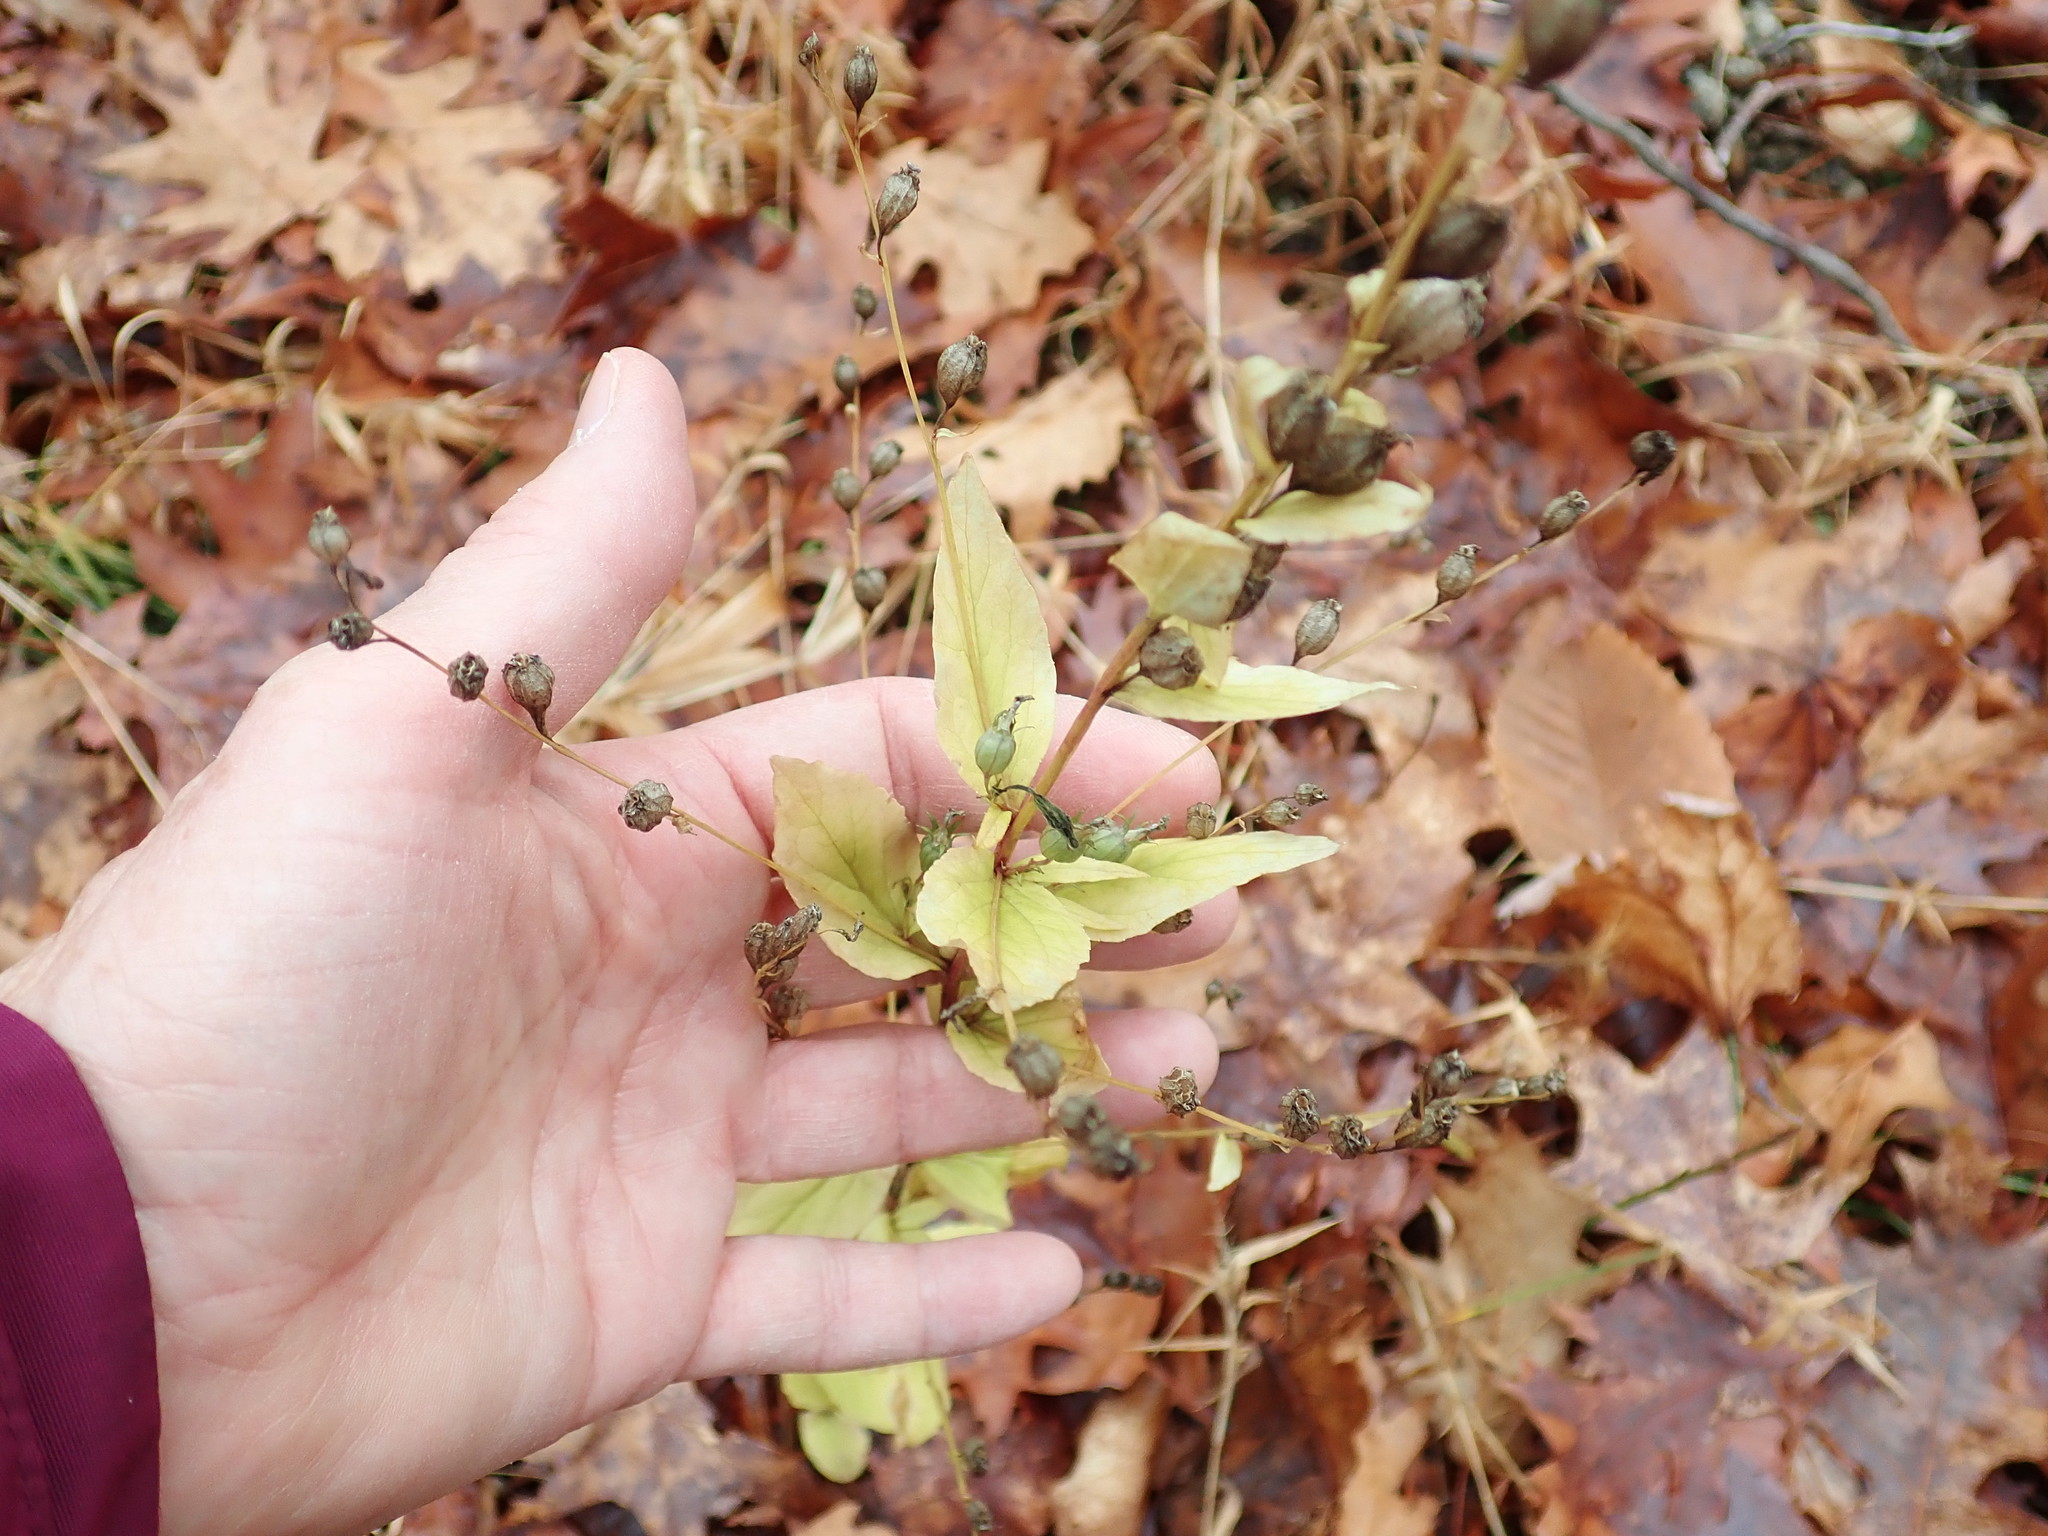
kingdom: Plantae
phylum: Tracheophyta
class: Magnoliopsida
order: Asterales
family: Campanulaceae
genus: Lobelia
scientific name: Lobelia inflata
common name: Indian tobacco
